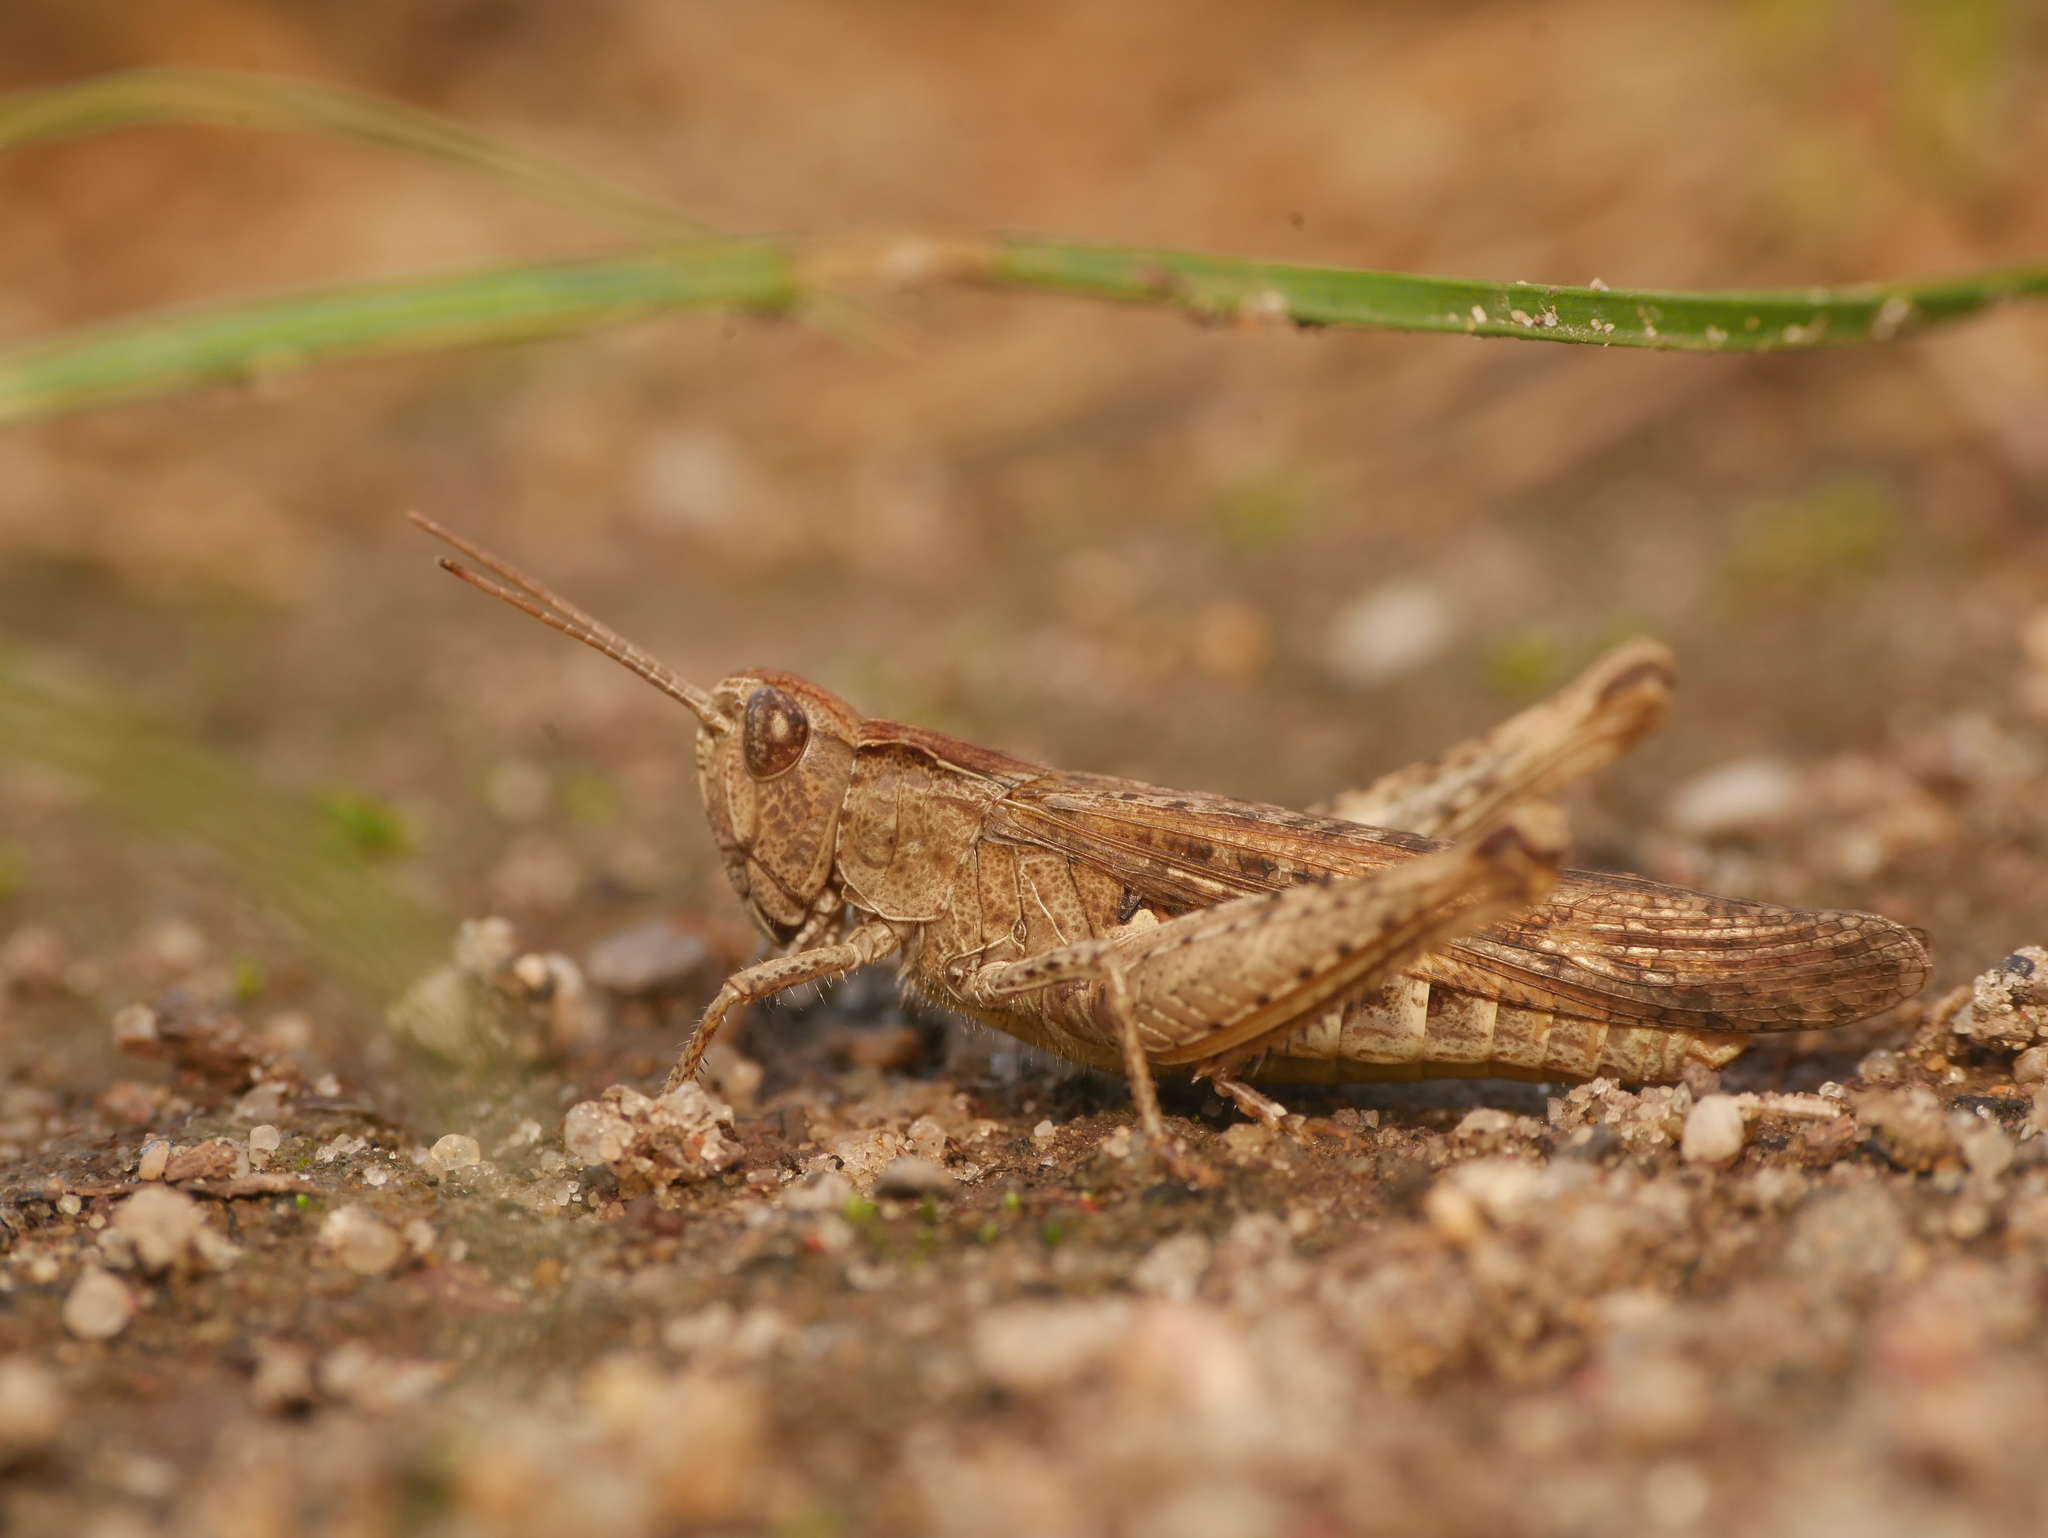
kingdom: Animalia
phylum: Arthropoda
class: Insecta
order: Orthoptera
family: Acrididae
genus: Chorthippus
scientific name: Chorthippus brunneus
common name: Field grasshopper
